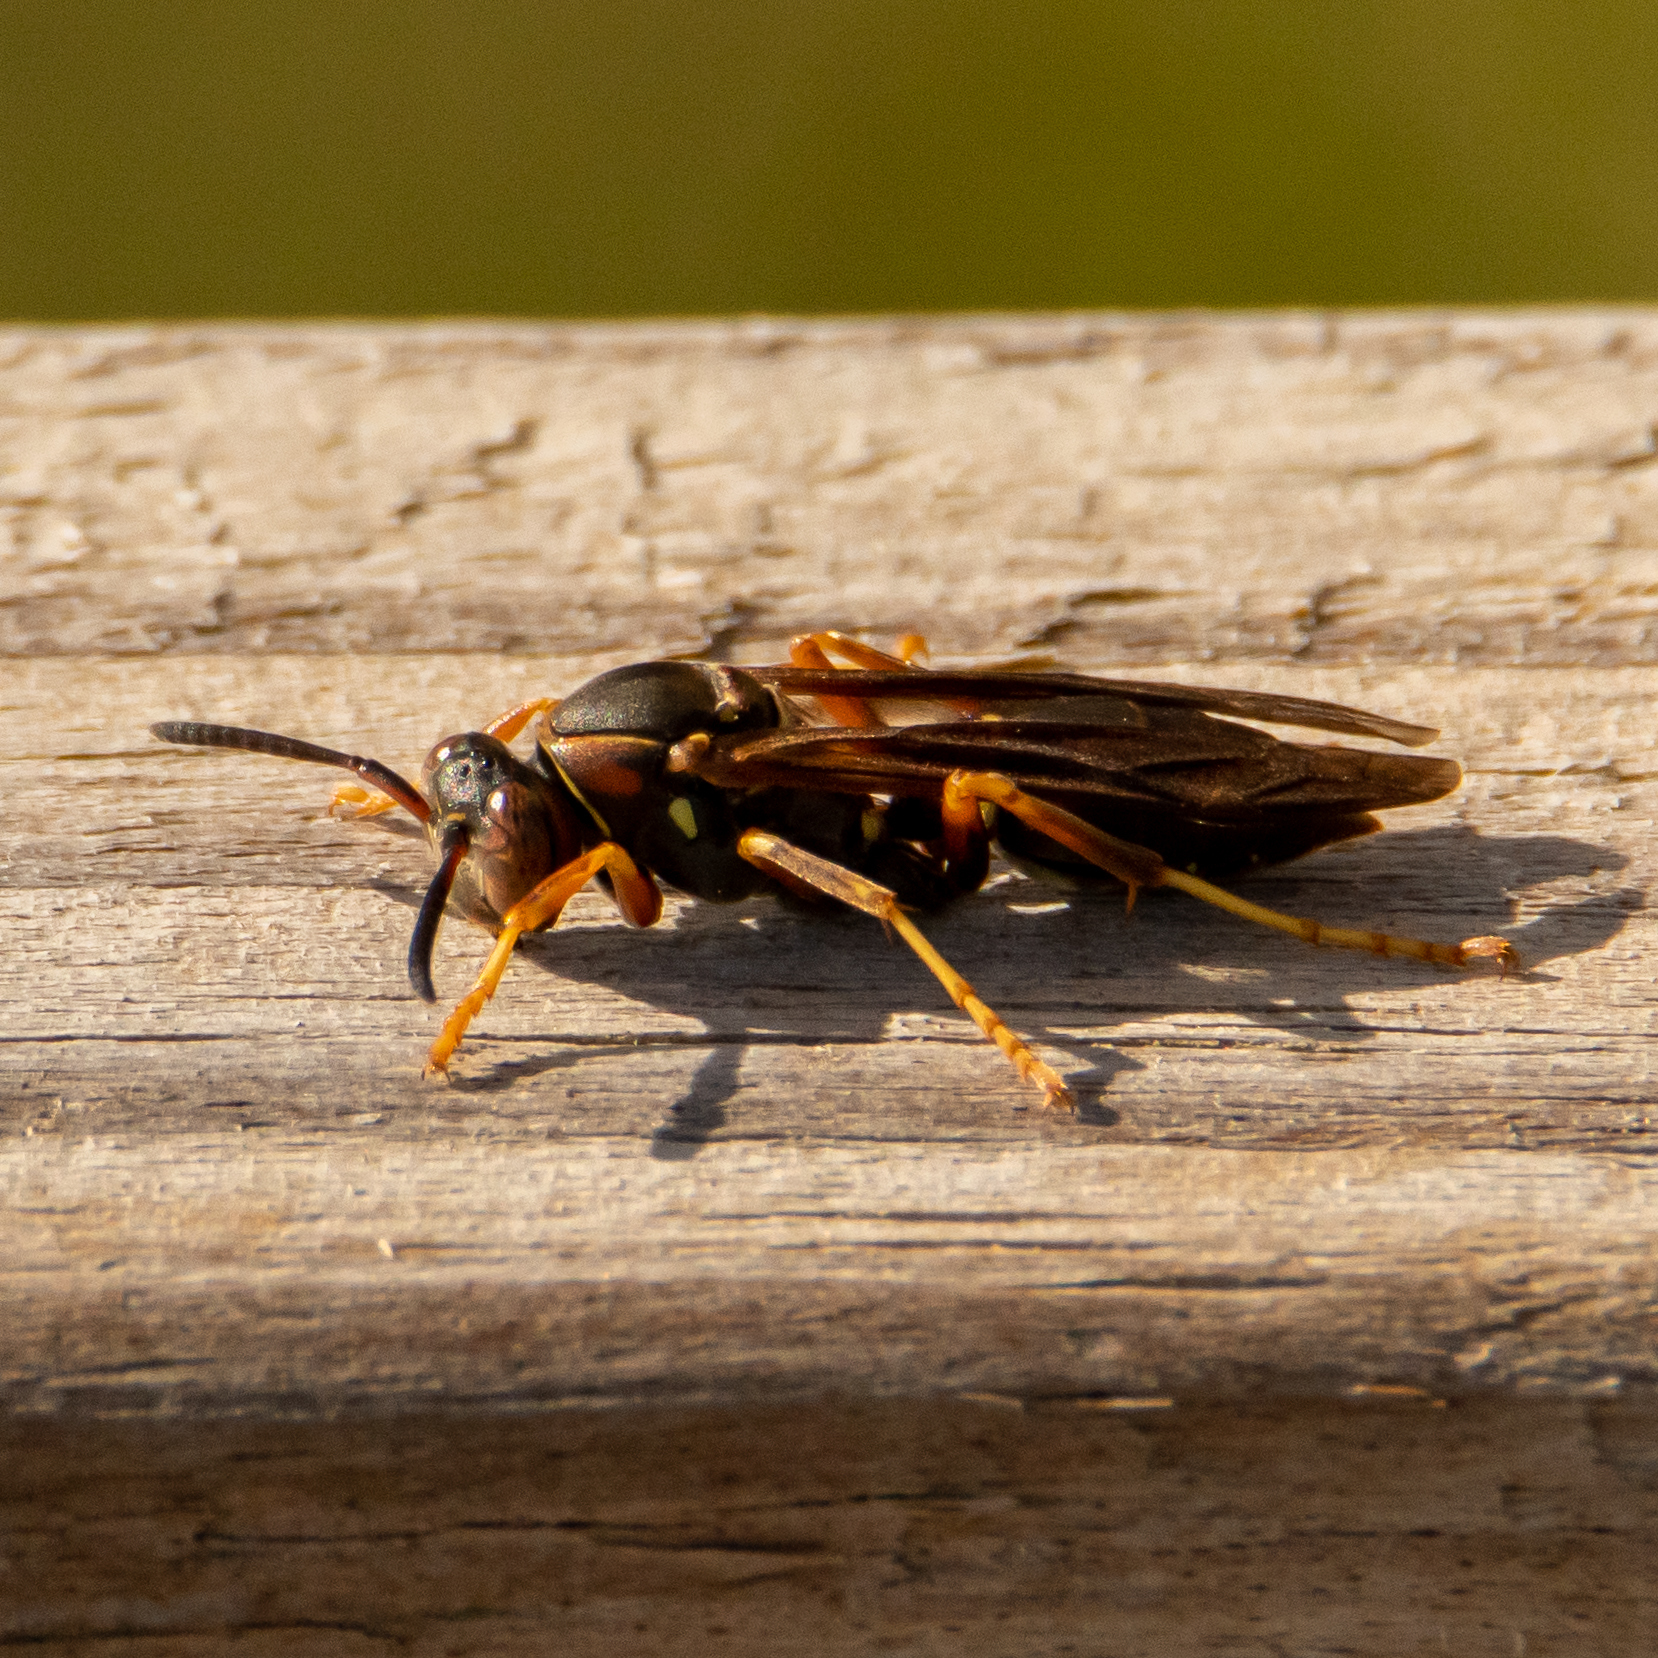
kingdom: Animalia
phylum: Arthropoda
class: Insecta
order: Hymenoptera
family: Eumenidae
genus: Polistes
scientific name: Polistes fuscatus
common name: Dark paper wasp
